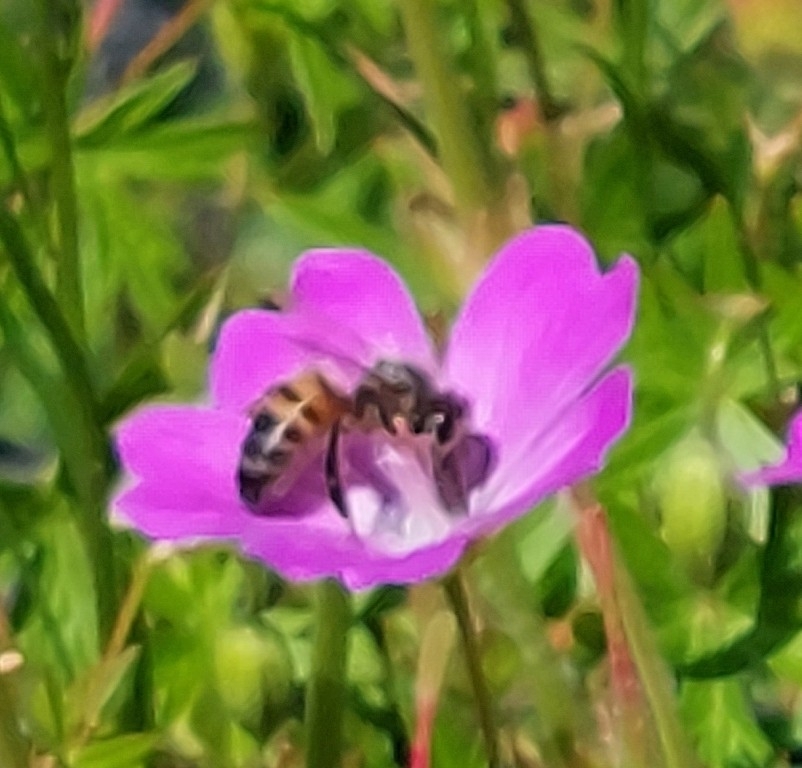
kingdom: Animalia
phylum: Arthropoda
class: Insecta
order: Hymenoptera
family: Apidae
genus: Apis
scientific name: Apis mellifera
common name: Honey bee
